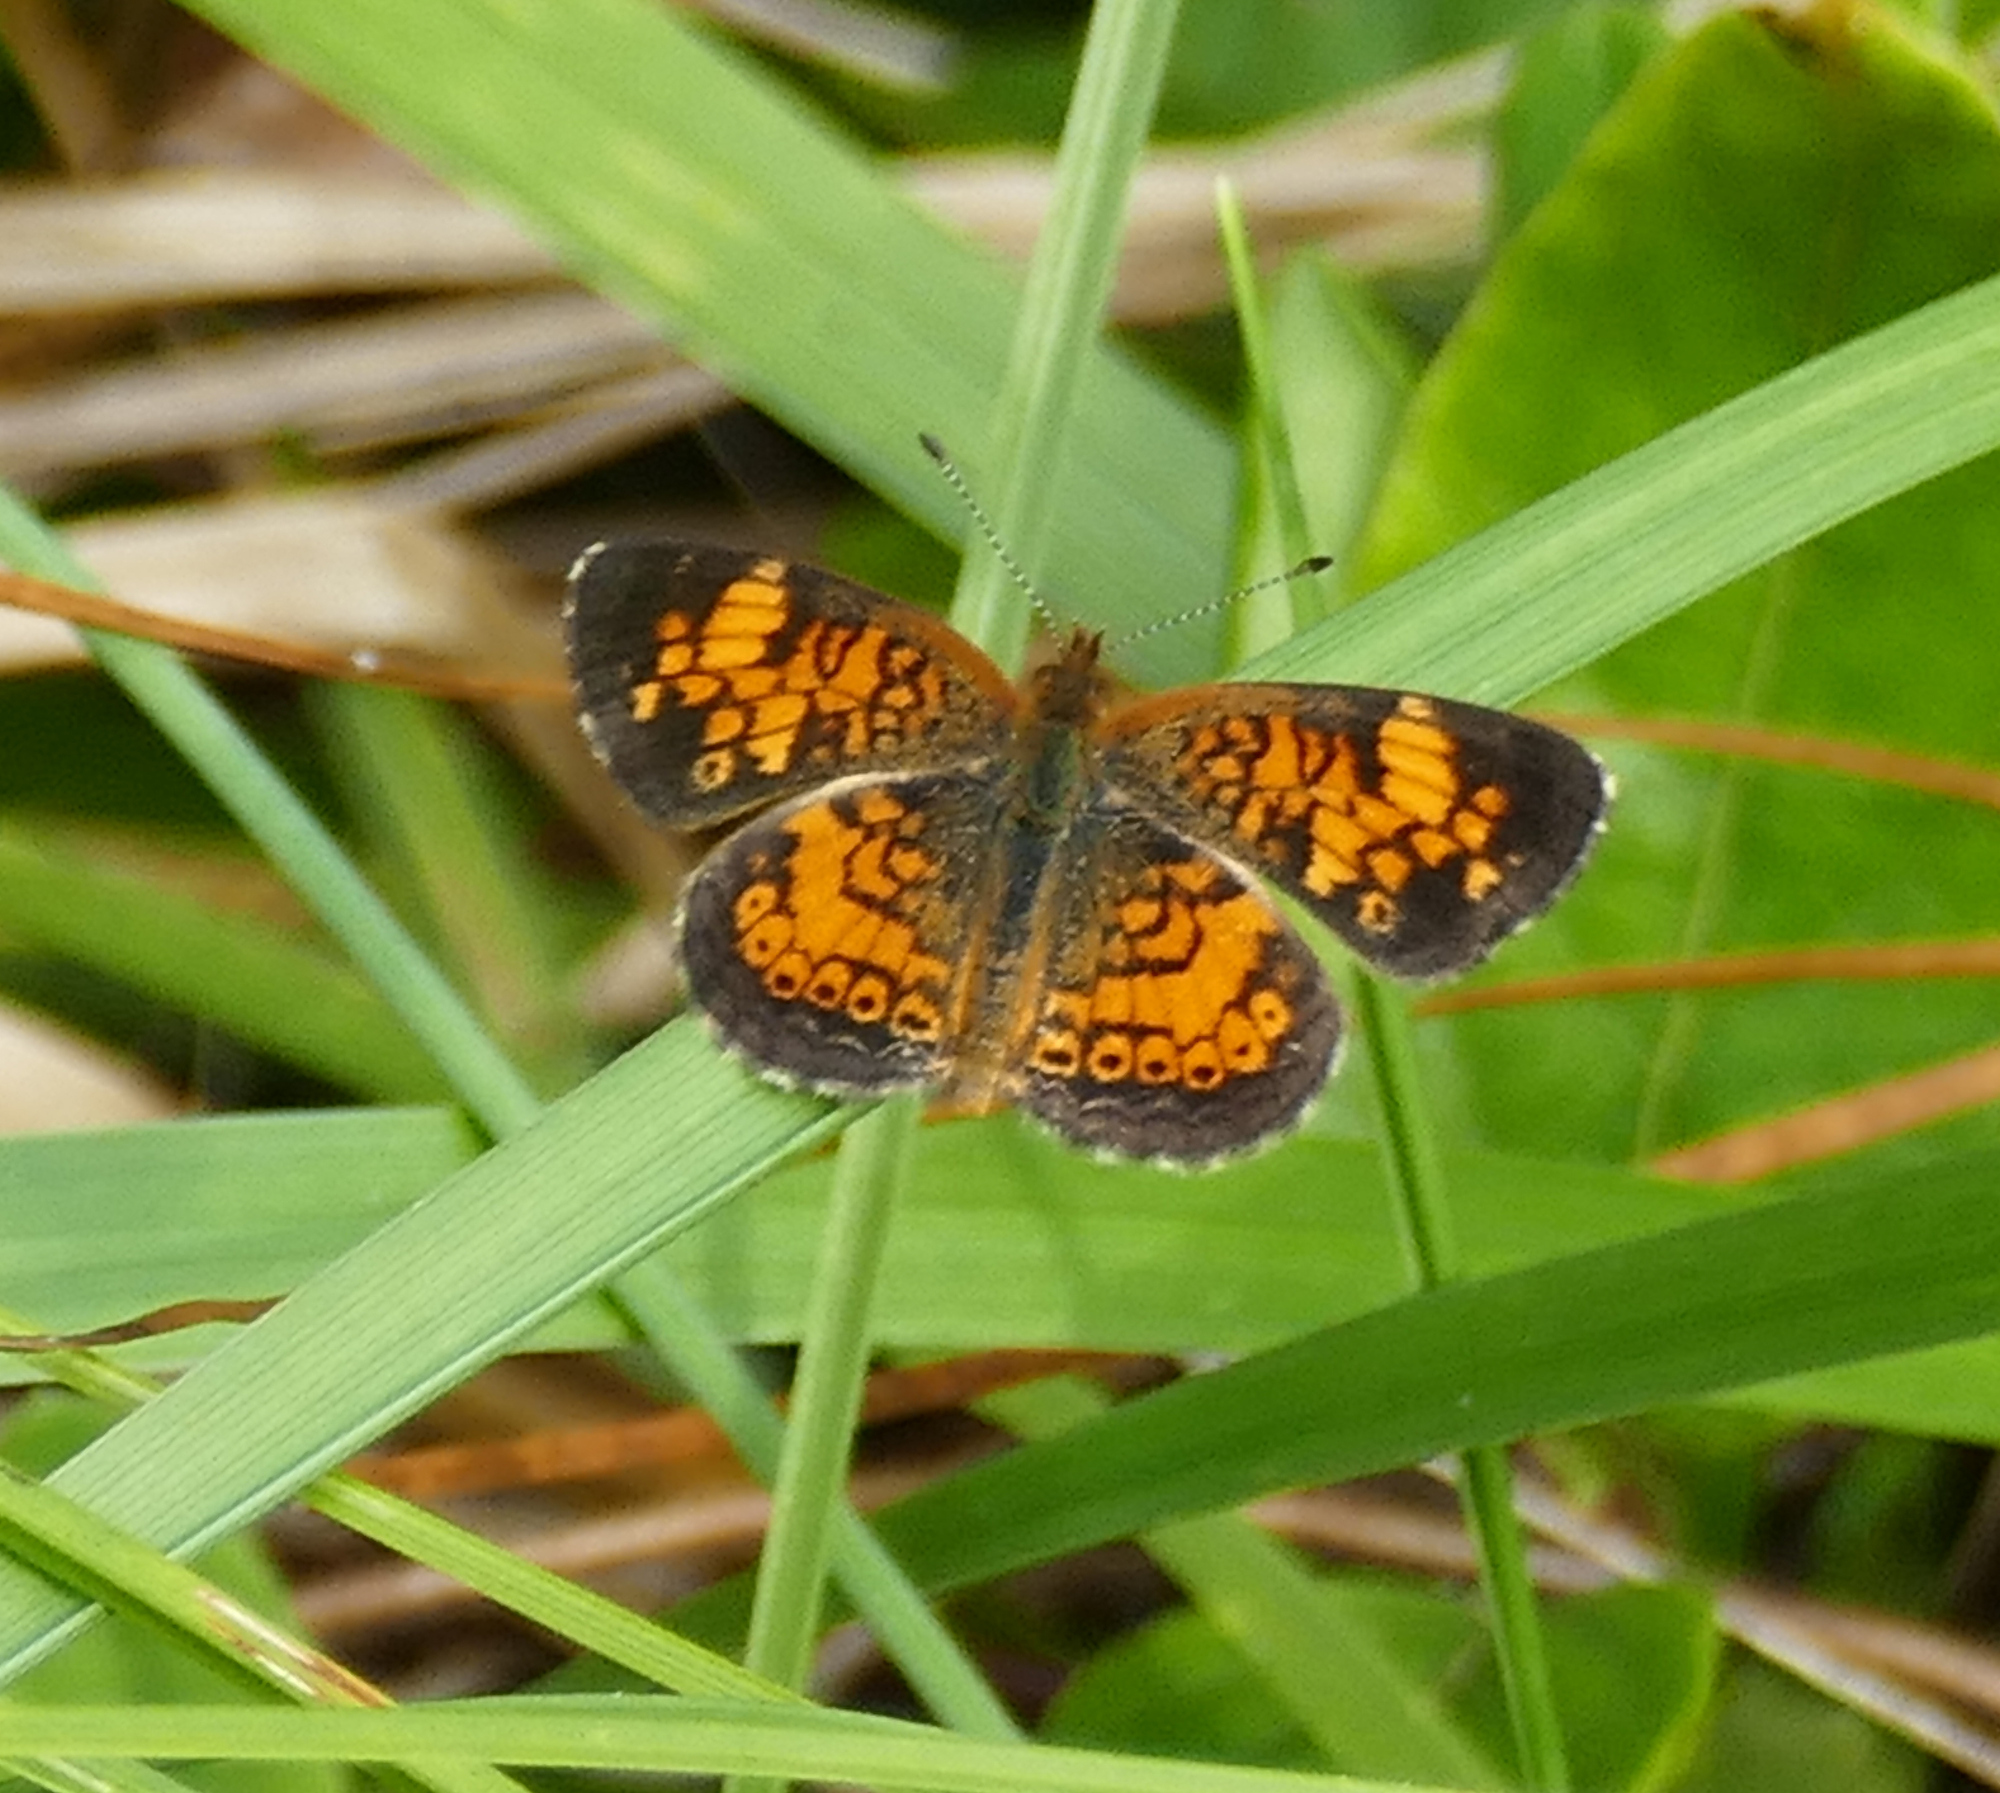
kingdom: Animalia
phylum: Arthropoda
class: Insecta
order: Lepidoptera
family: Nymphalidae
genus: Phyciodes
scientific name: Phyciodes tharos
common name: Pearl crescent
